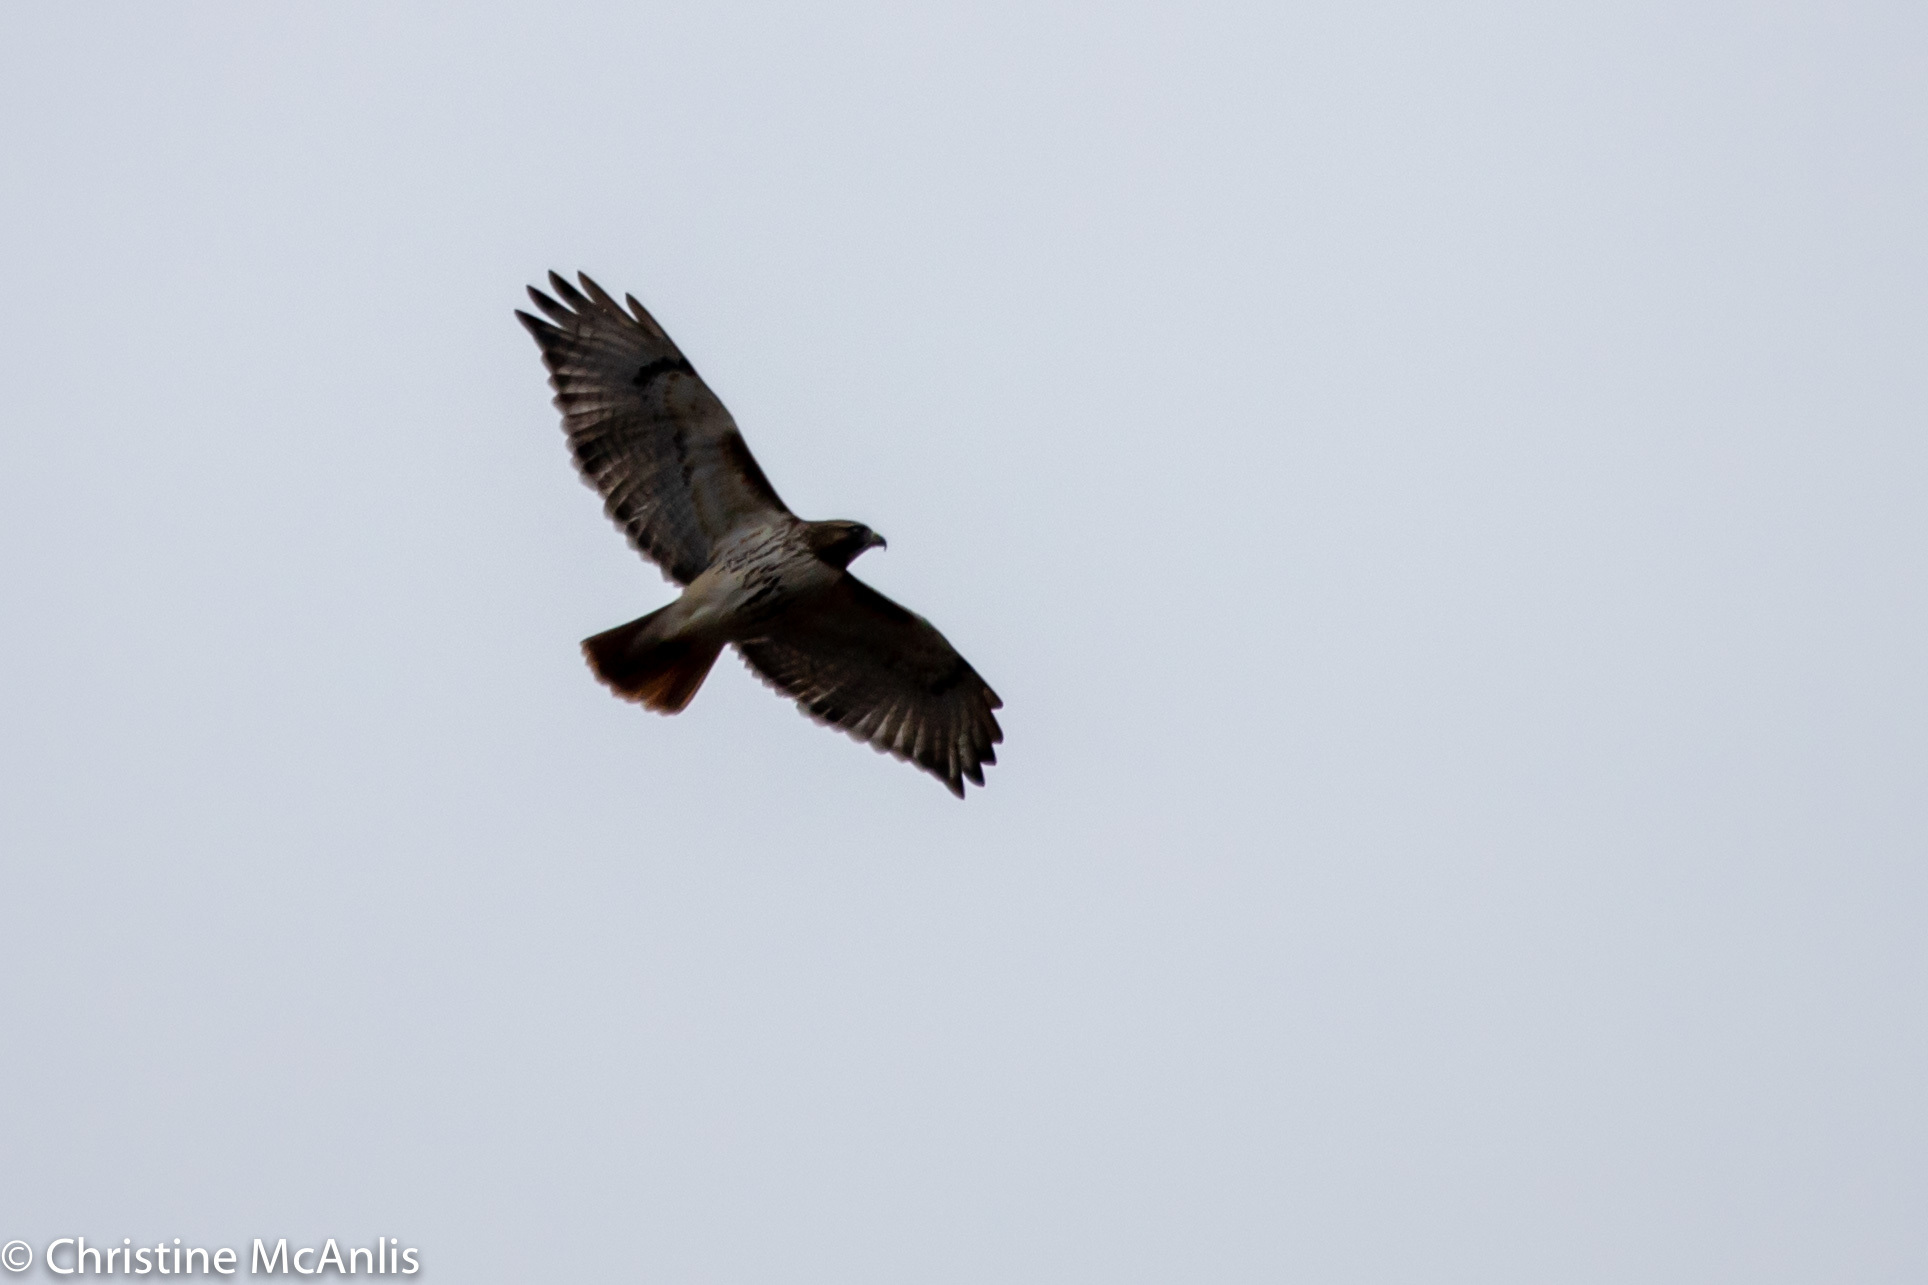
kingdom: Animalia
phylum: Chordata
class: Aves
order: Accipitriformes
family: Accipitridae
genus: Buteo
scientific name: Buteo jamaicensis
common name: Red-tailed hawk
